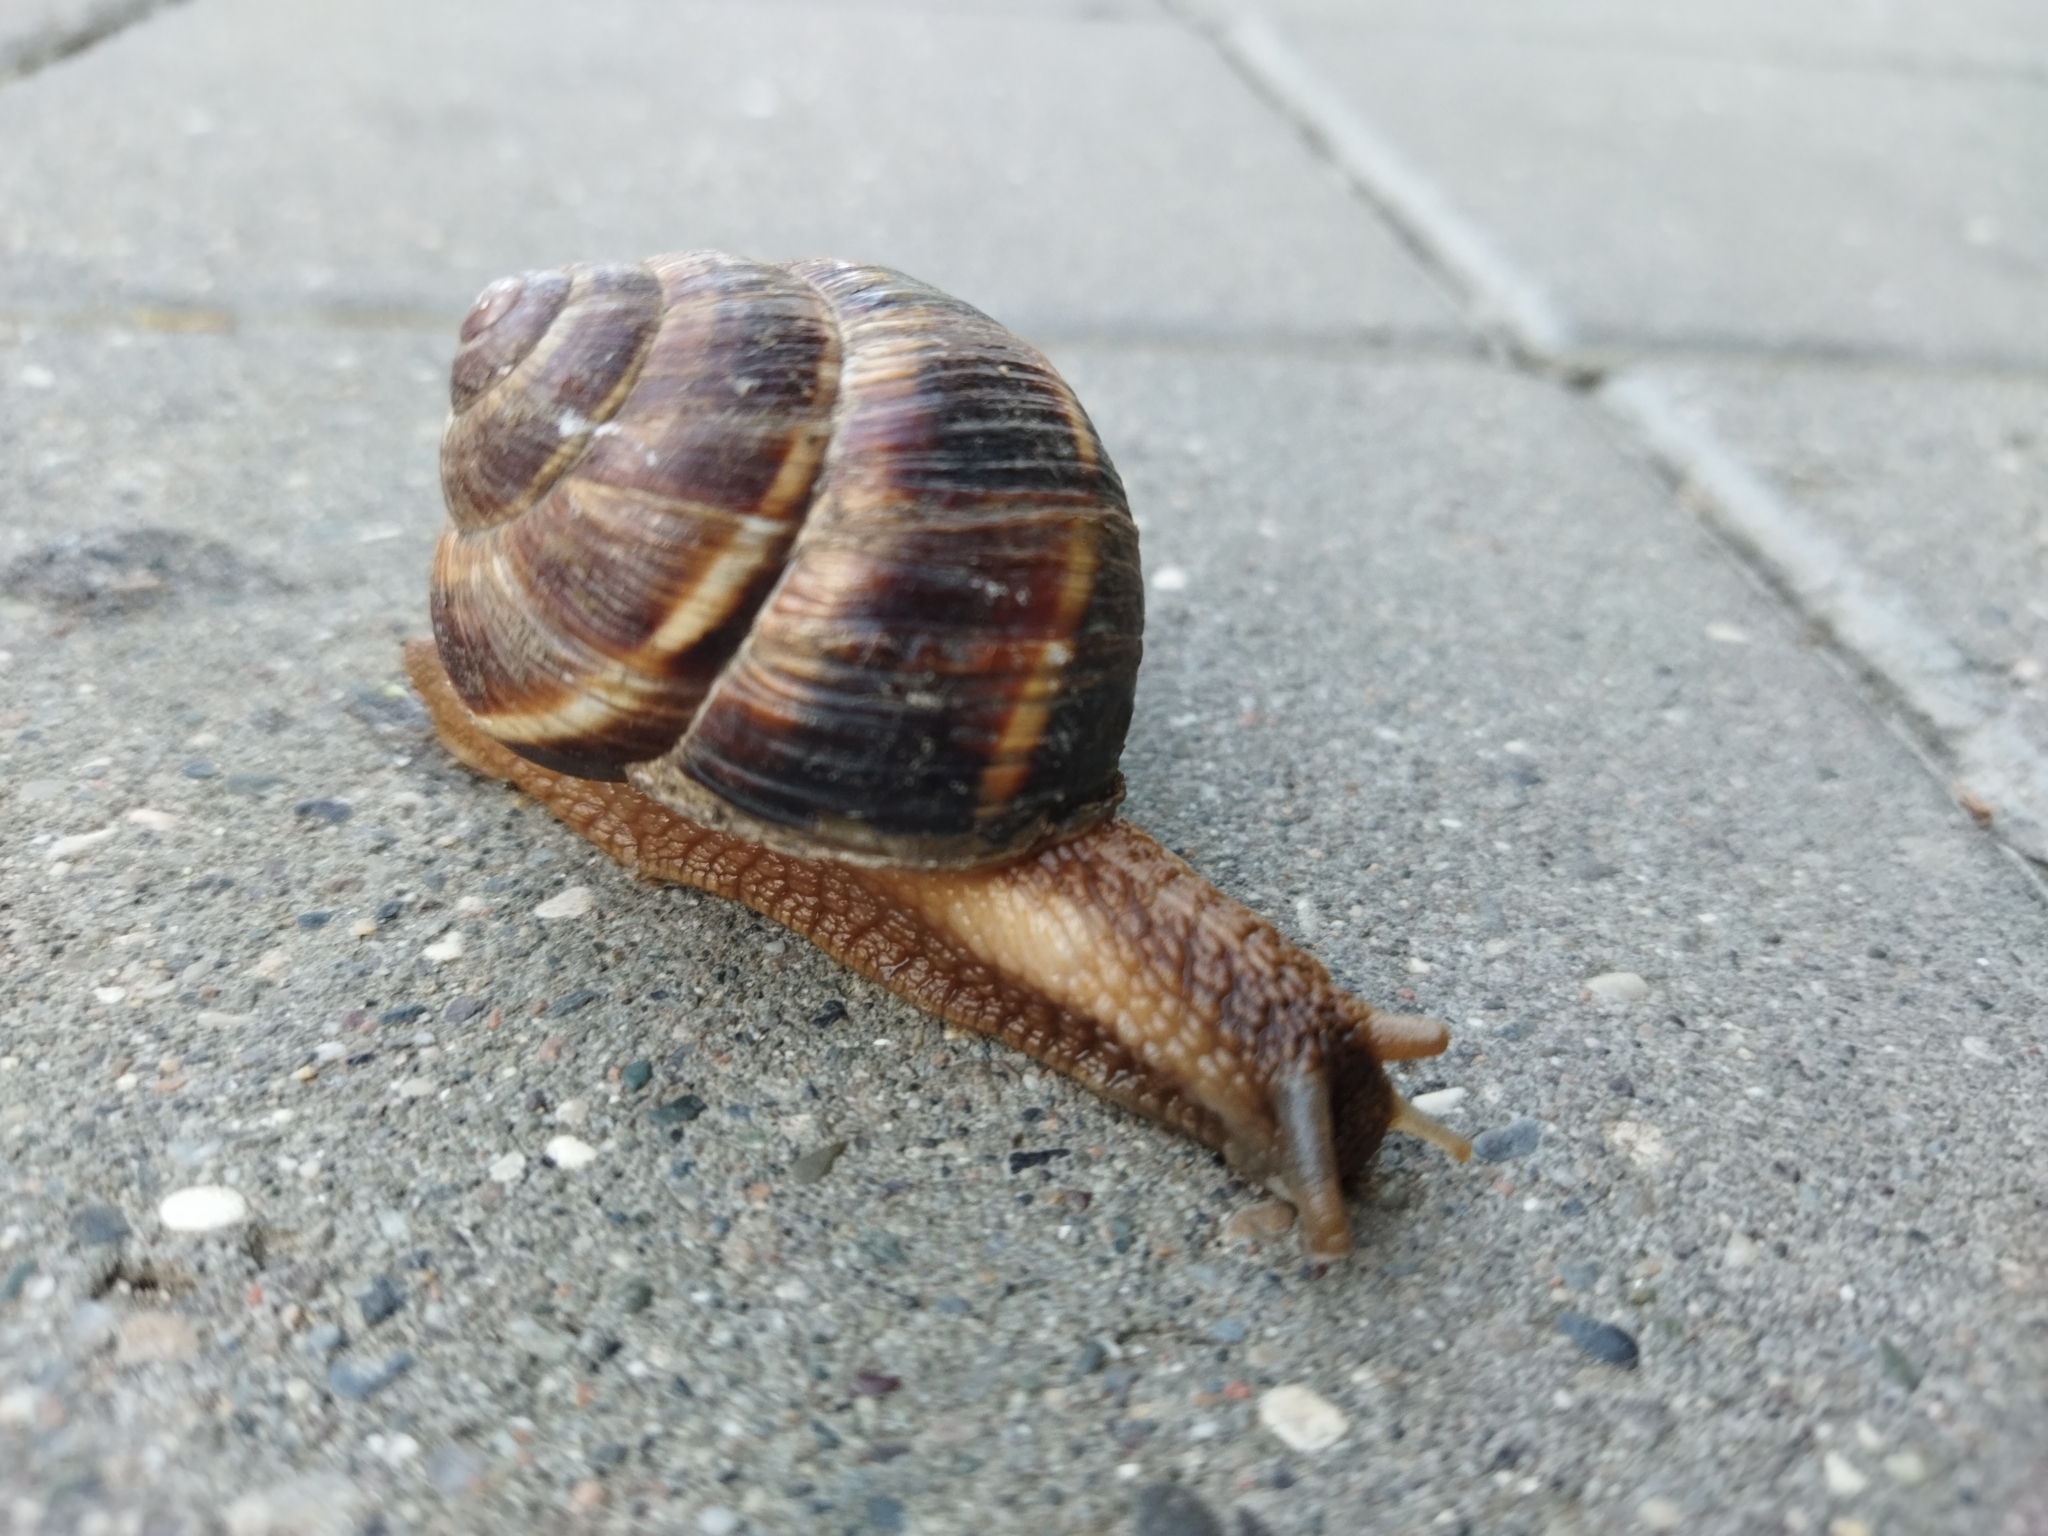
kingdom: Animalia
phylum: Mollusca
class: Gastropoda
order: Stylommatophora
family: Helicidae
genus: Helix
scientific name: Helix lucorum
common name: Turkish snail
